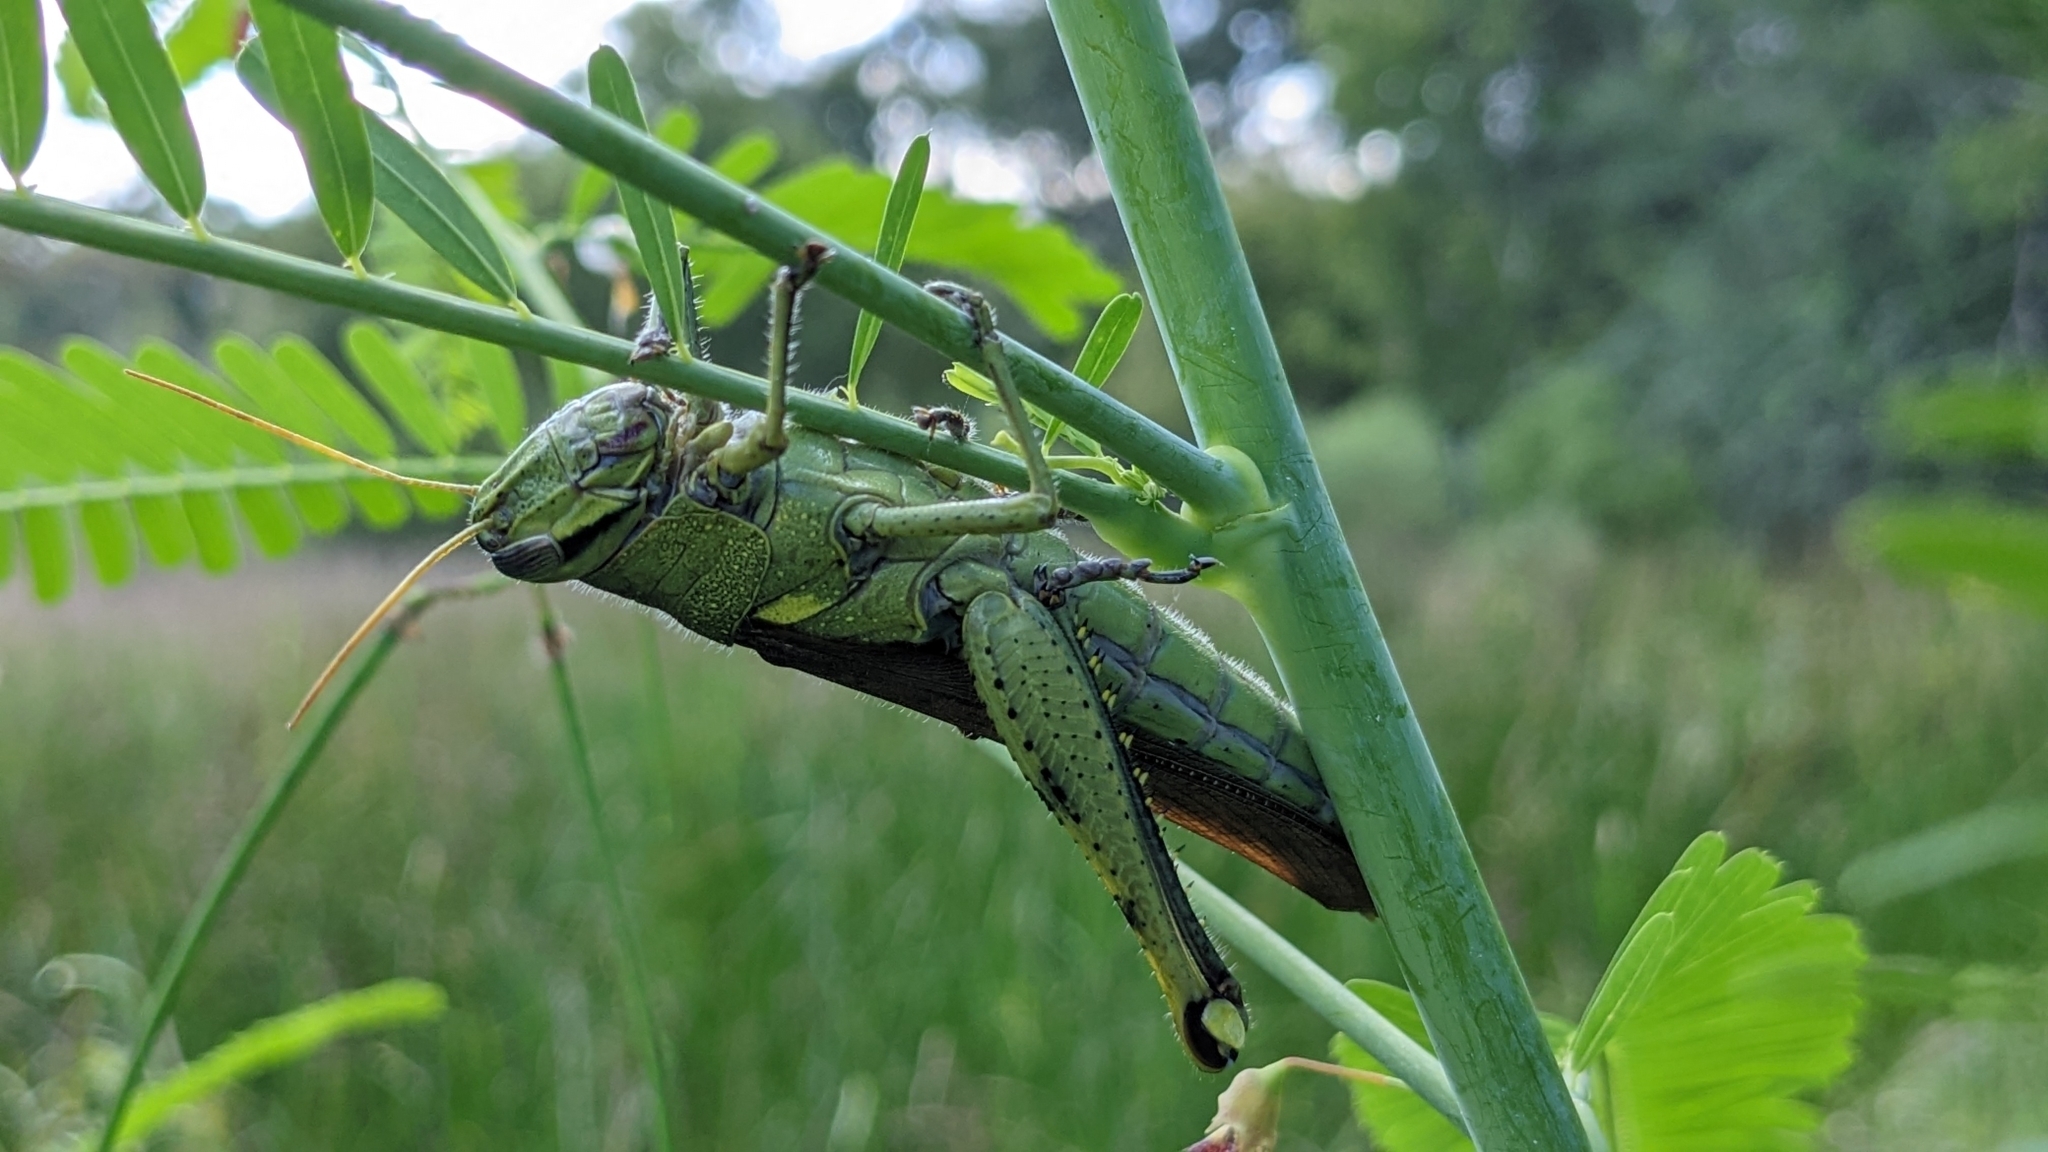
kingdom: Animalia
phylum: Arthropoda
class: Insecta
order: Orthoptera
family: Acrididae
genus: Schistocerca
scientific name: Schistocerca obscura
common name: Obscure bird grasshopper
